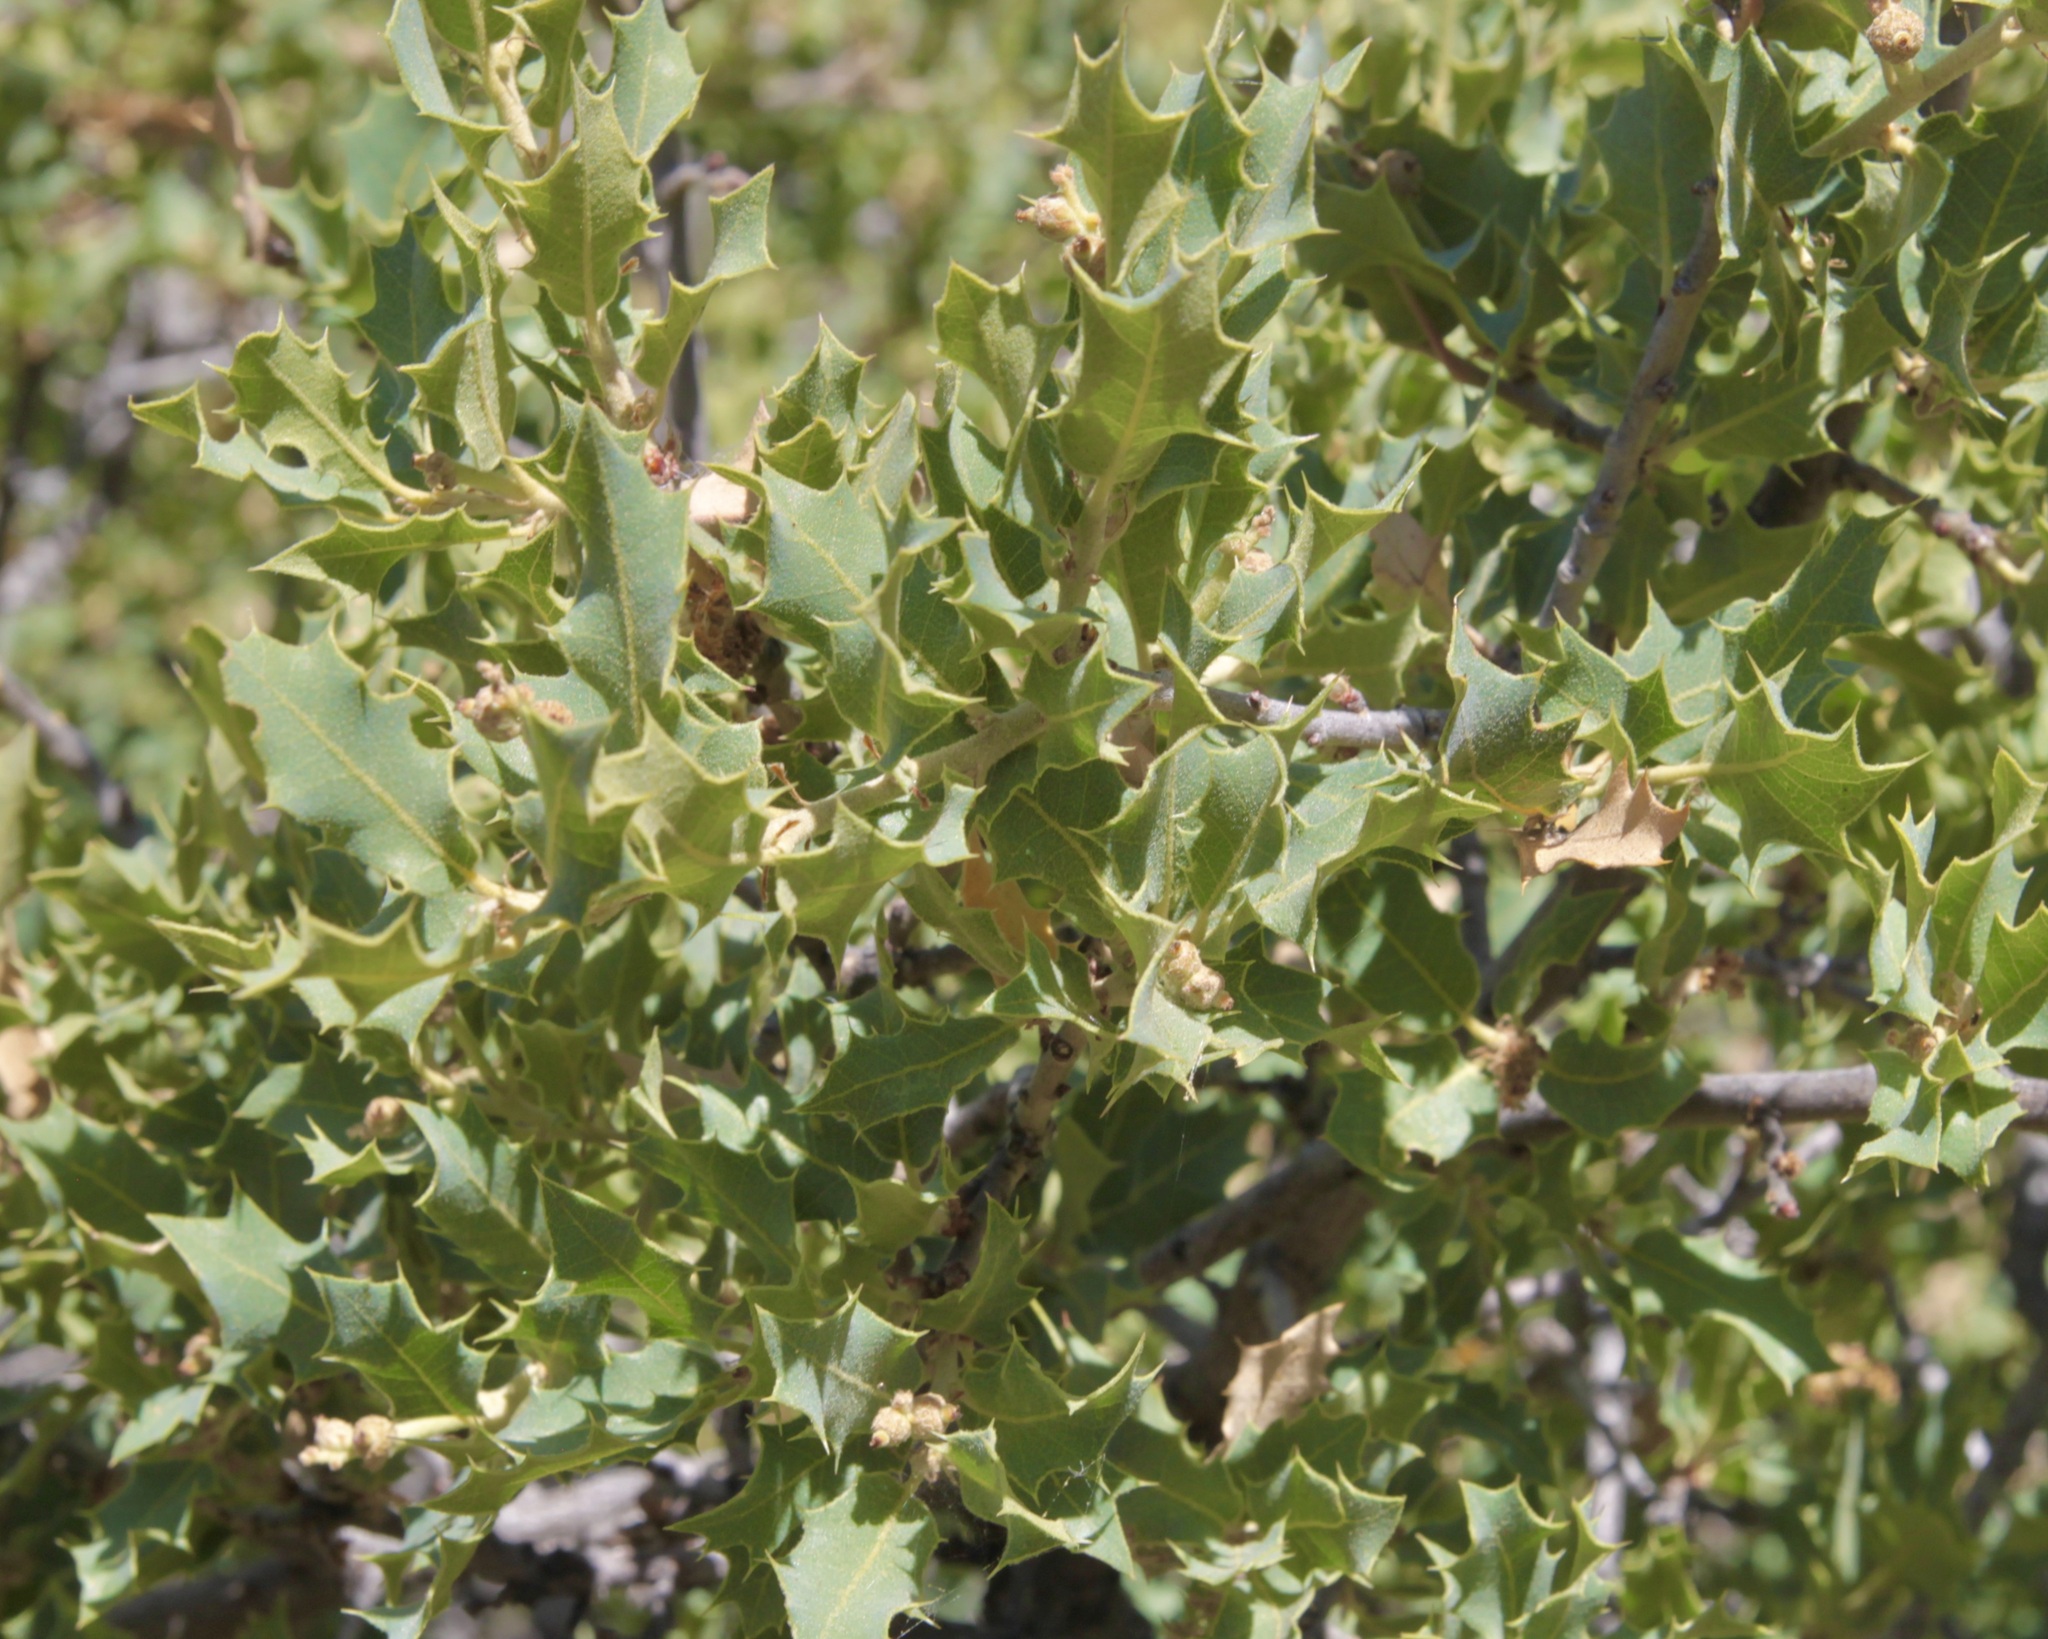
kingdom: Plantae
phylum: Tracheophyta
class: Magnoliopsida
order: Fagales
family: Fagaceae
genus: Quercus
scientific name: Quercus turbinella
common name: Sonoran scrub oak
